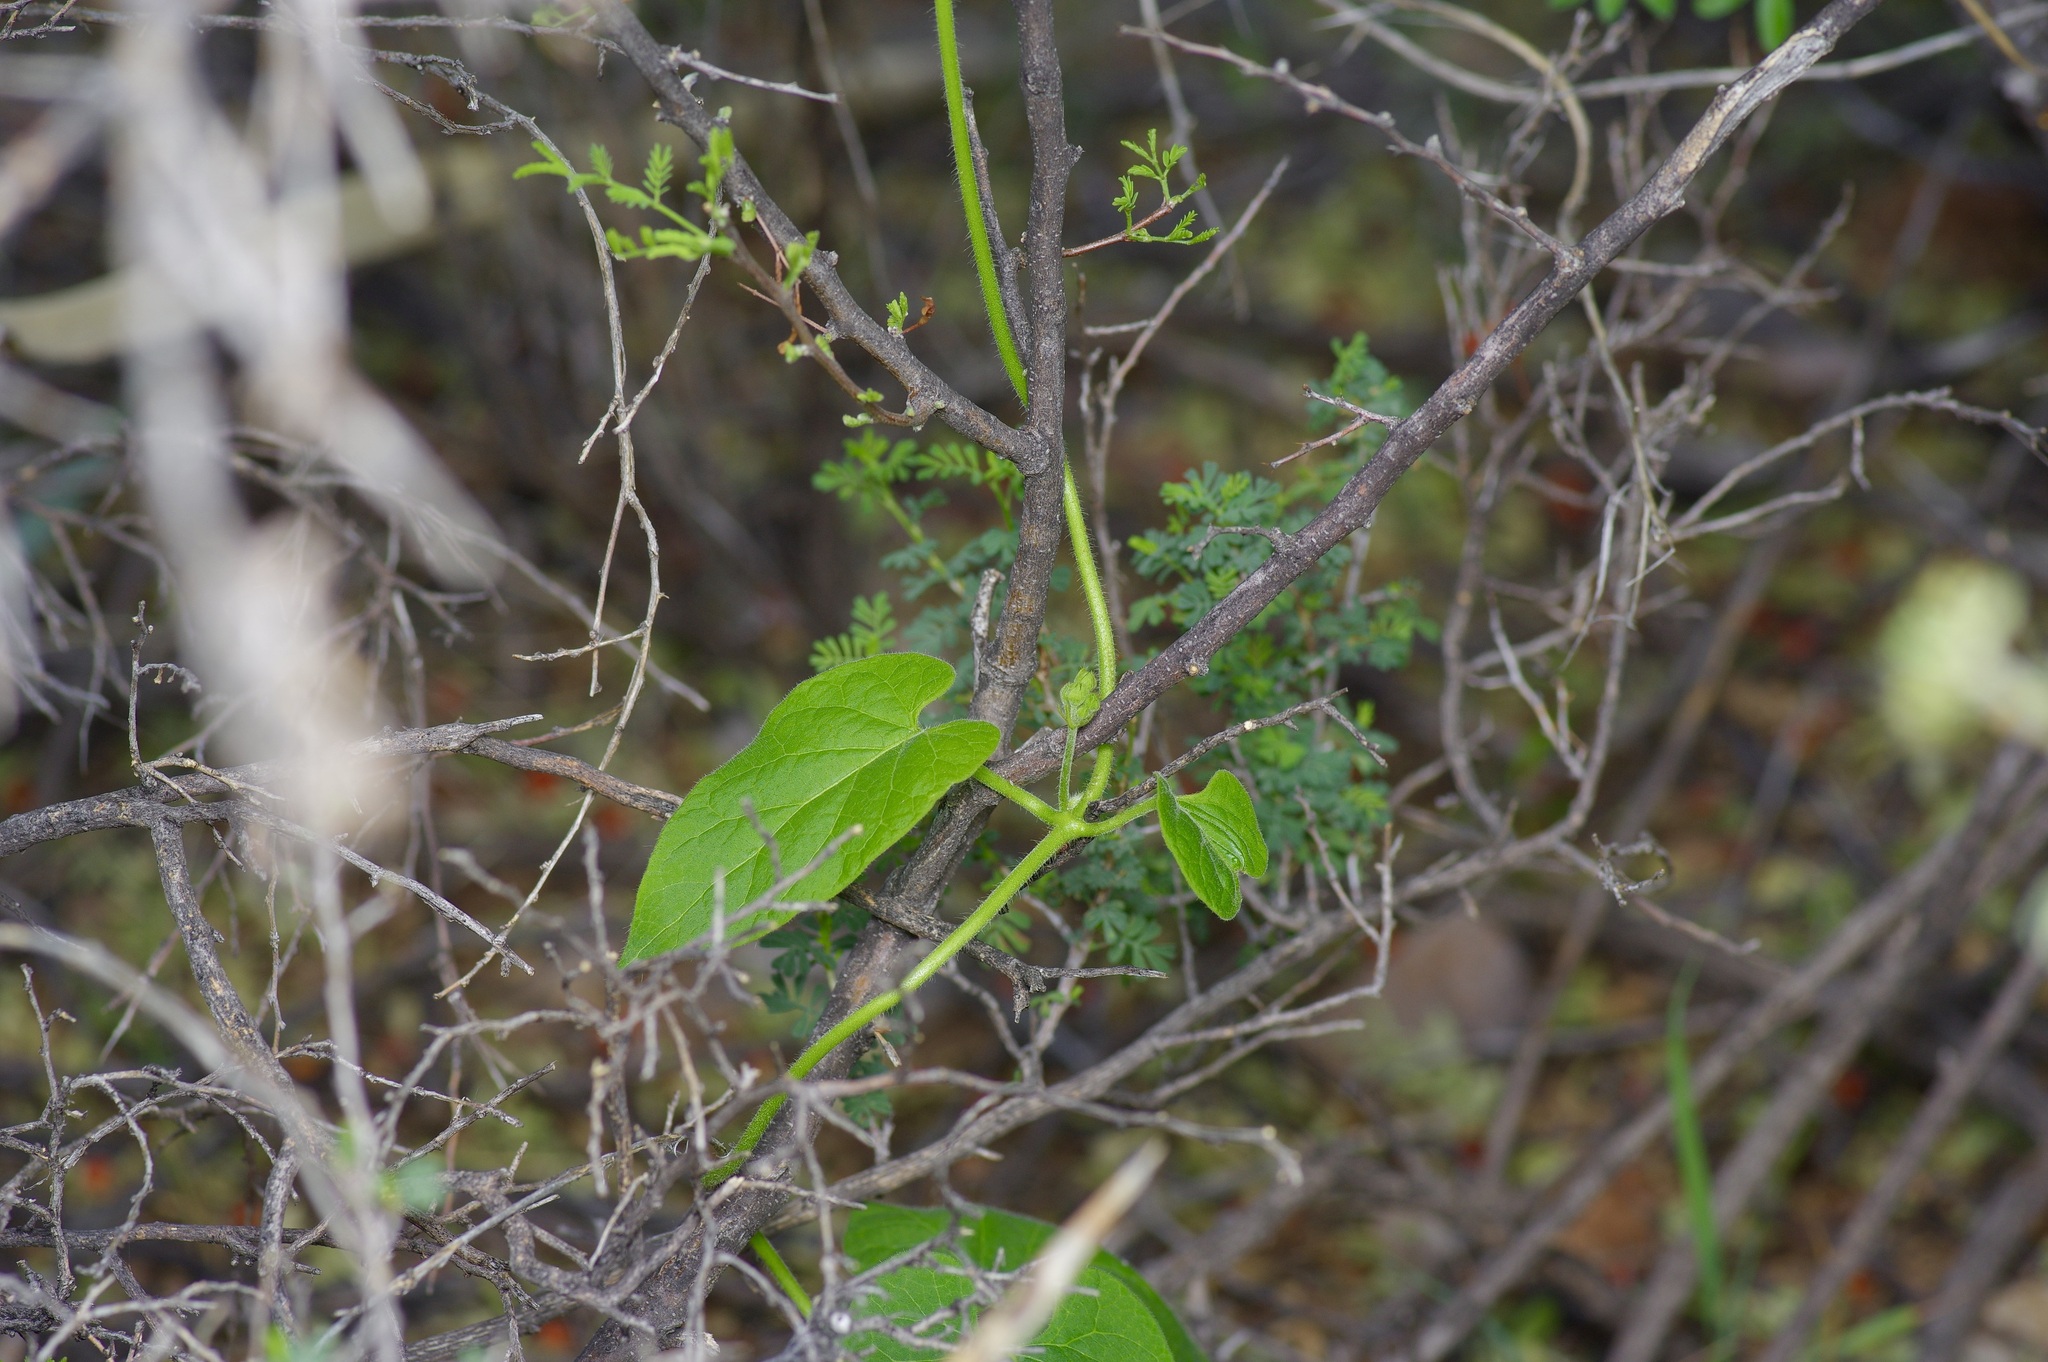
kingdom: Plantae
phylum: Tracheophyta
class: Magnoliopsida
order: Gentianales
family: Apocynaceae
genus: Dictyanthus
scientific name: Dictyanthus reticulatus
